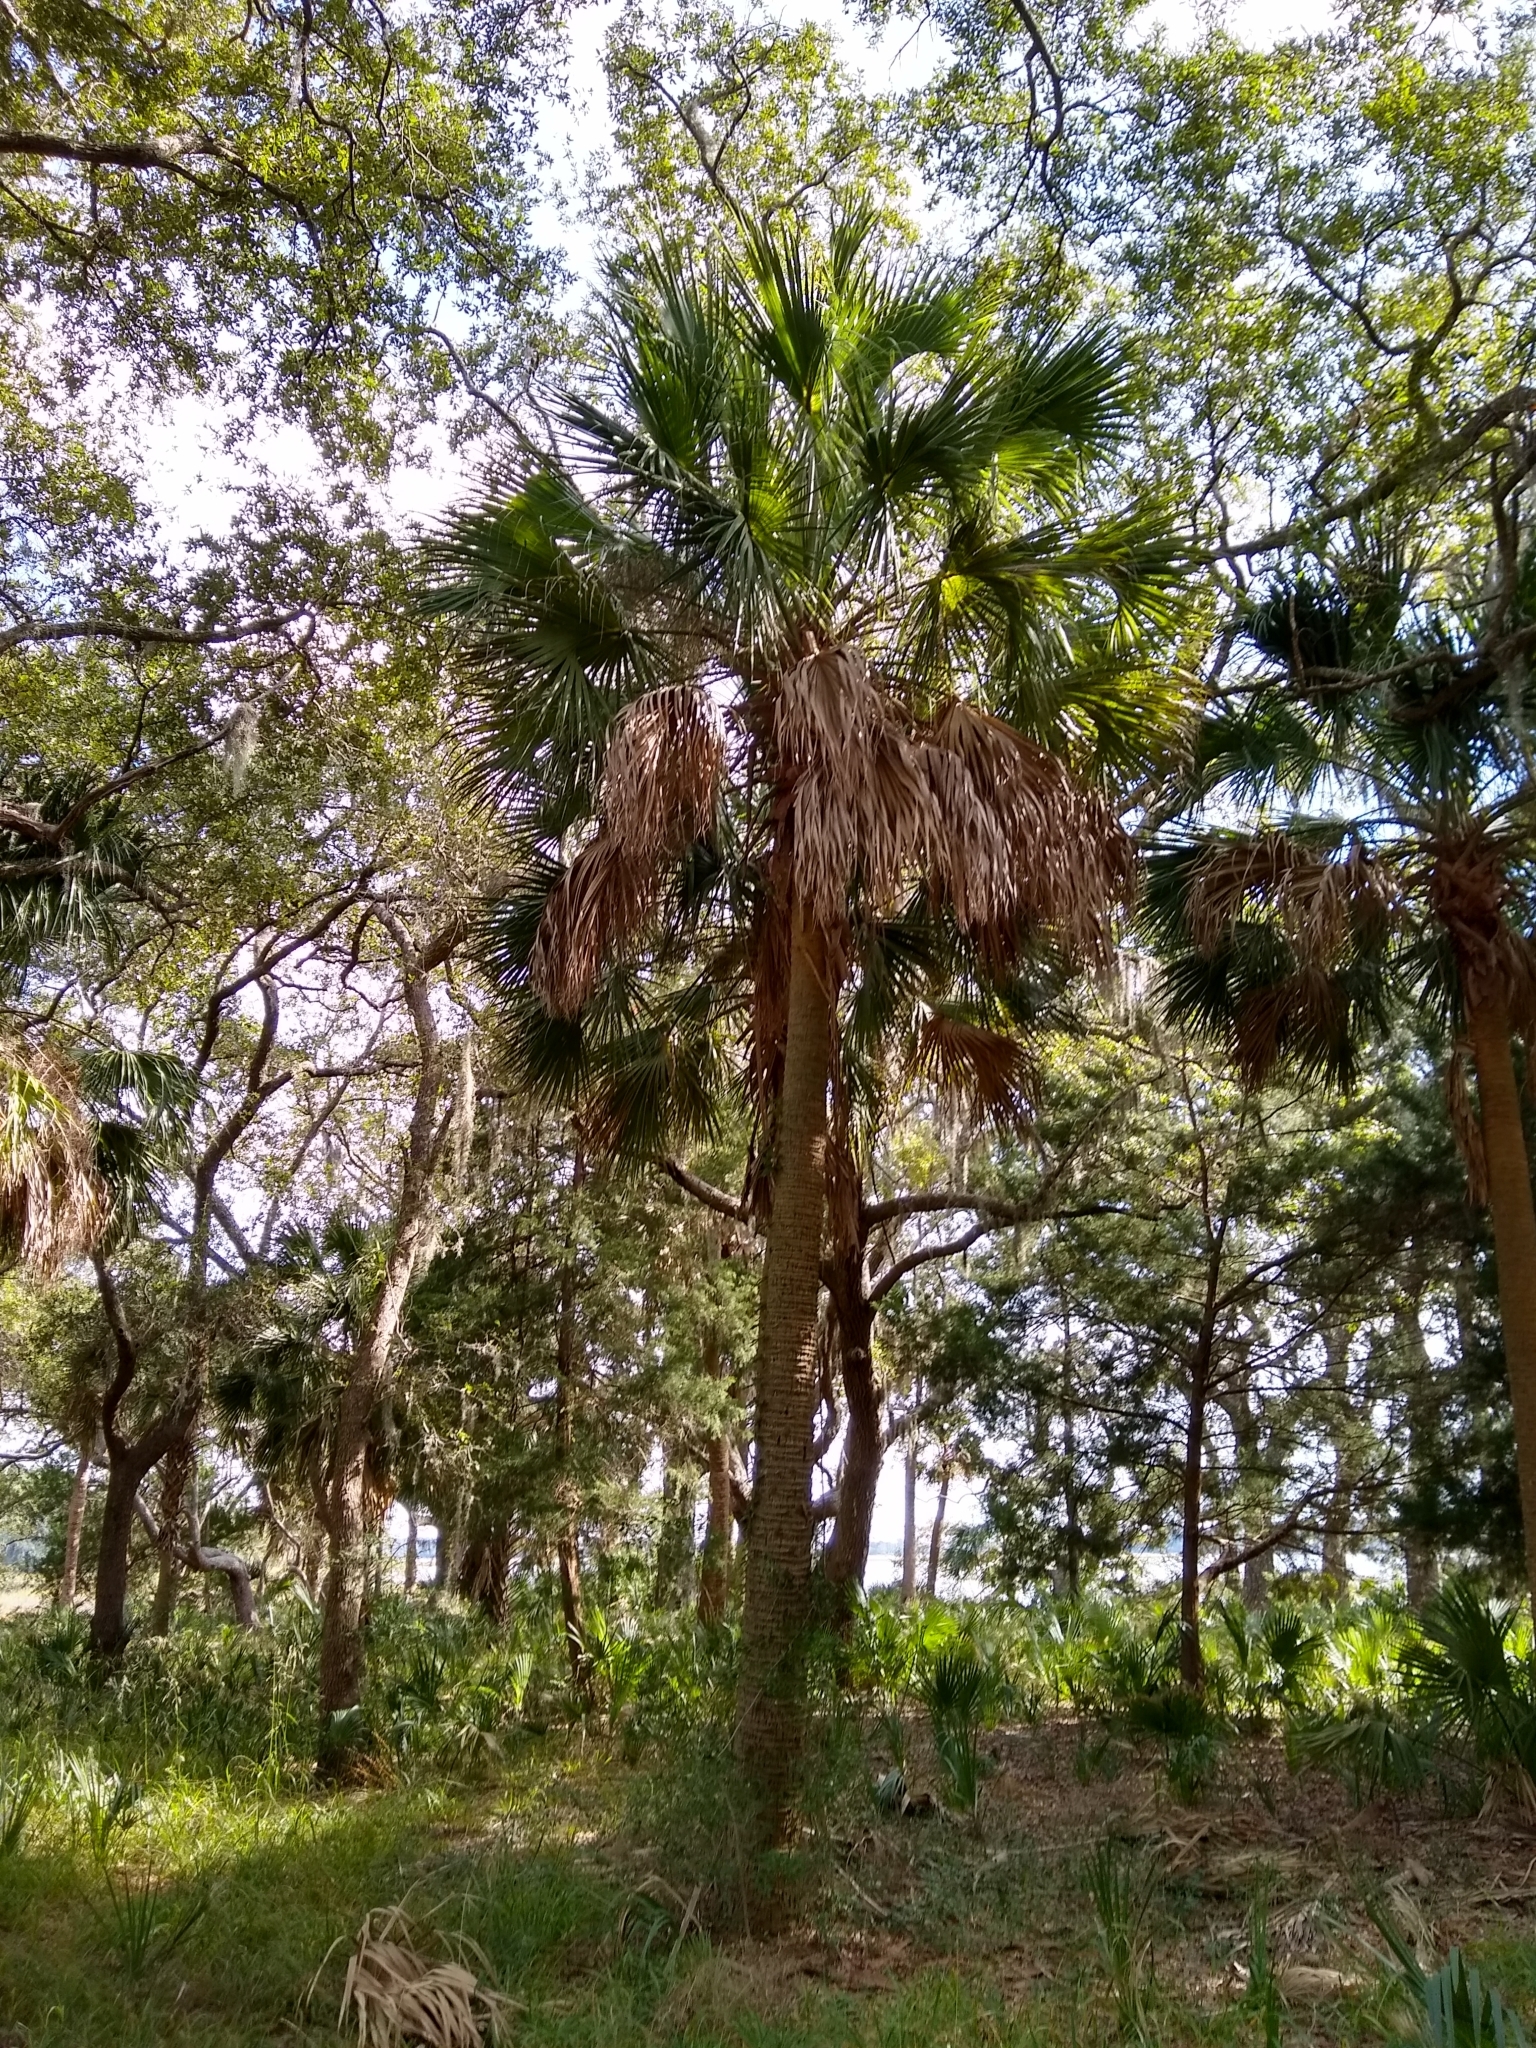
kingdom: Plantae
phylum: Tracheophyta
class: Liliopsida
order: Arecales
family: Arecaceae
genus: Sabal
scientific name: Sabal palmetto
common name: Blue palmetto
